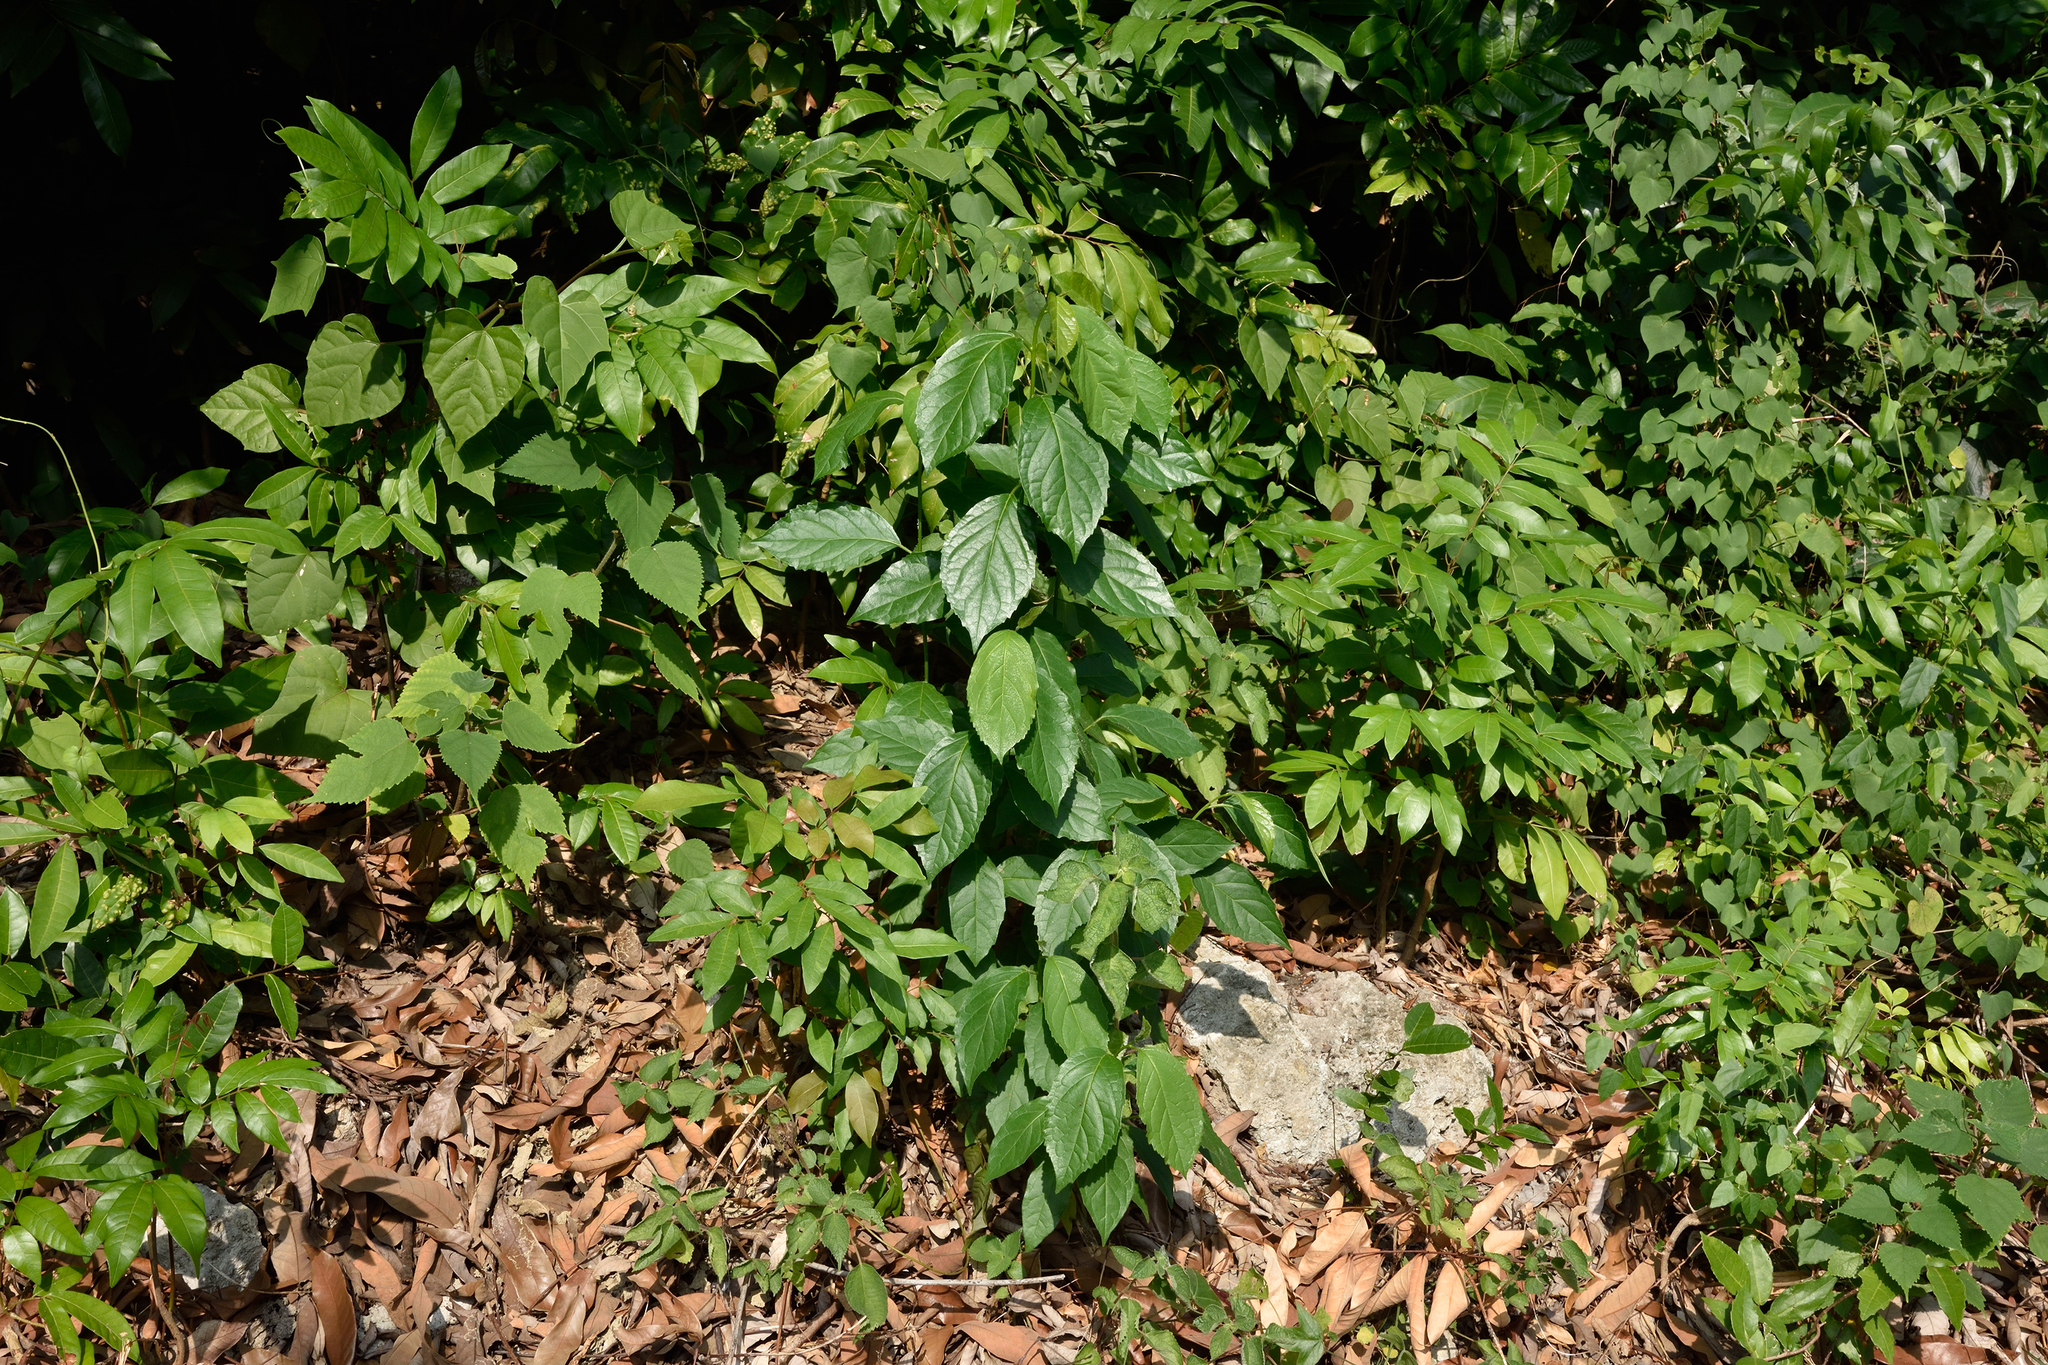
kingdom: Plantae
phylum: Tracheophyta
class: Magnoliopsida
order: Boraginales
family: Ehretiaceae
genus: Ehretia
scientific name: Ehretia resinosa
